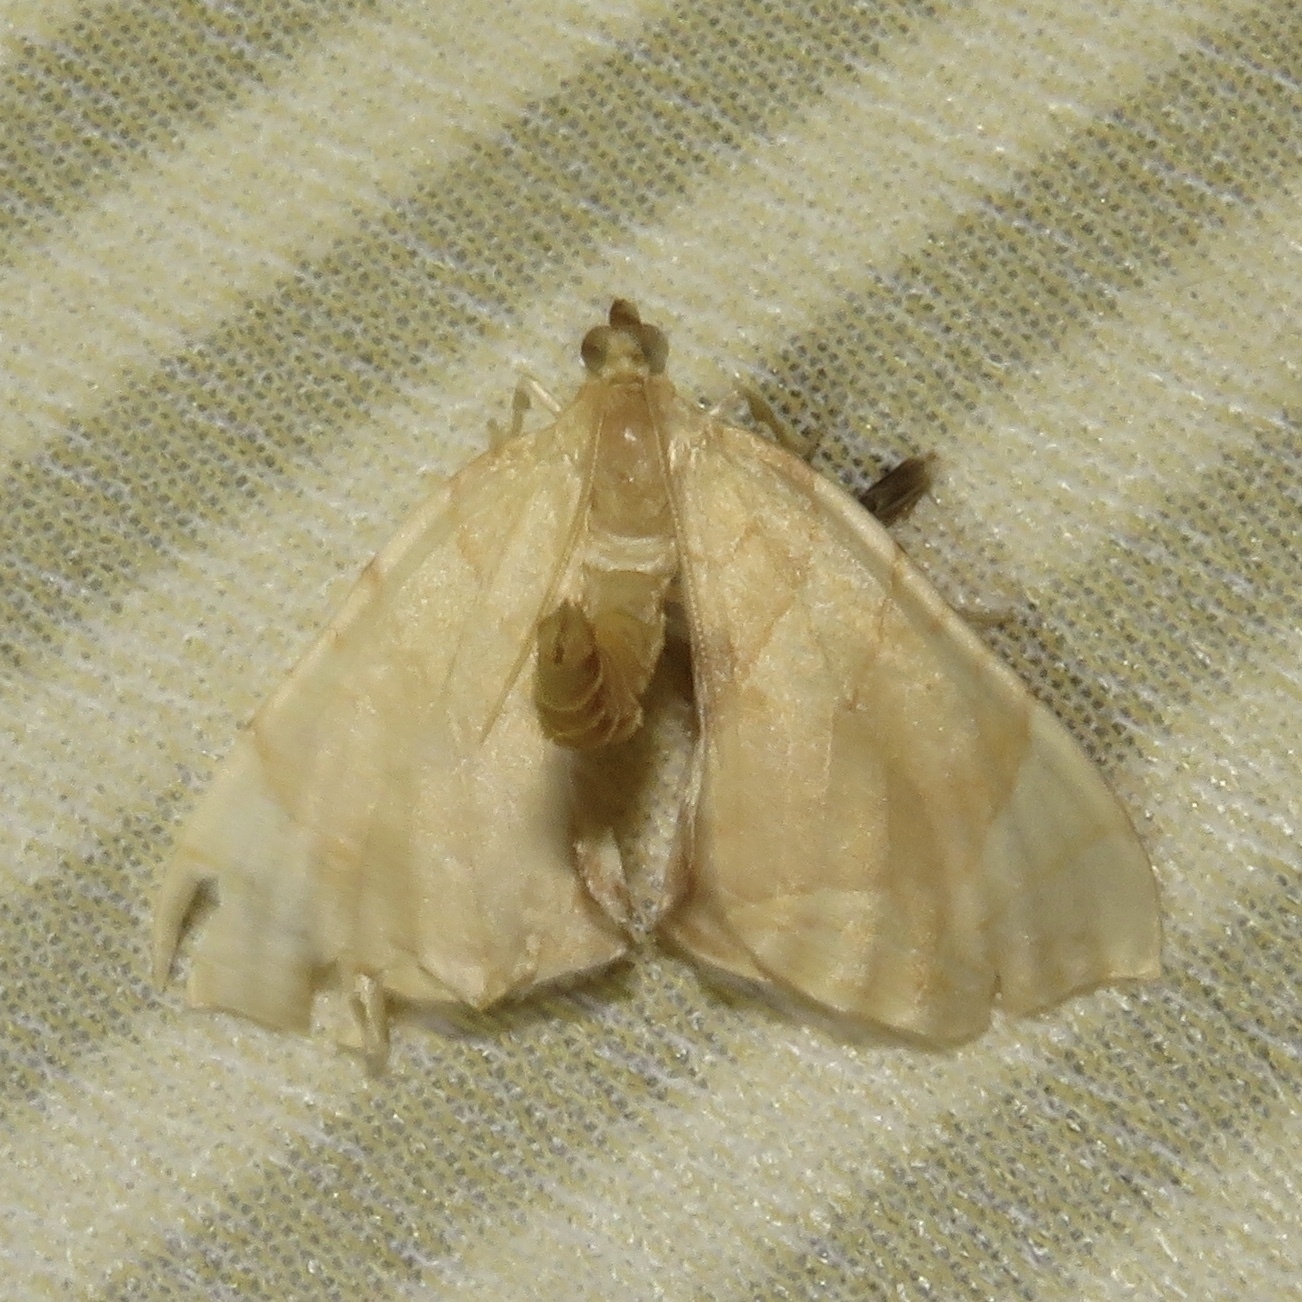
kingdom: Animalia
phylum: Arthropoda
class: Insecta
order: Lepidoptera
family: Geometridae
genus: Eulithis
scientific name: Eulithis
